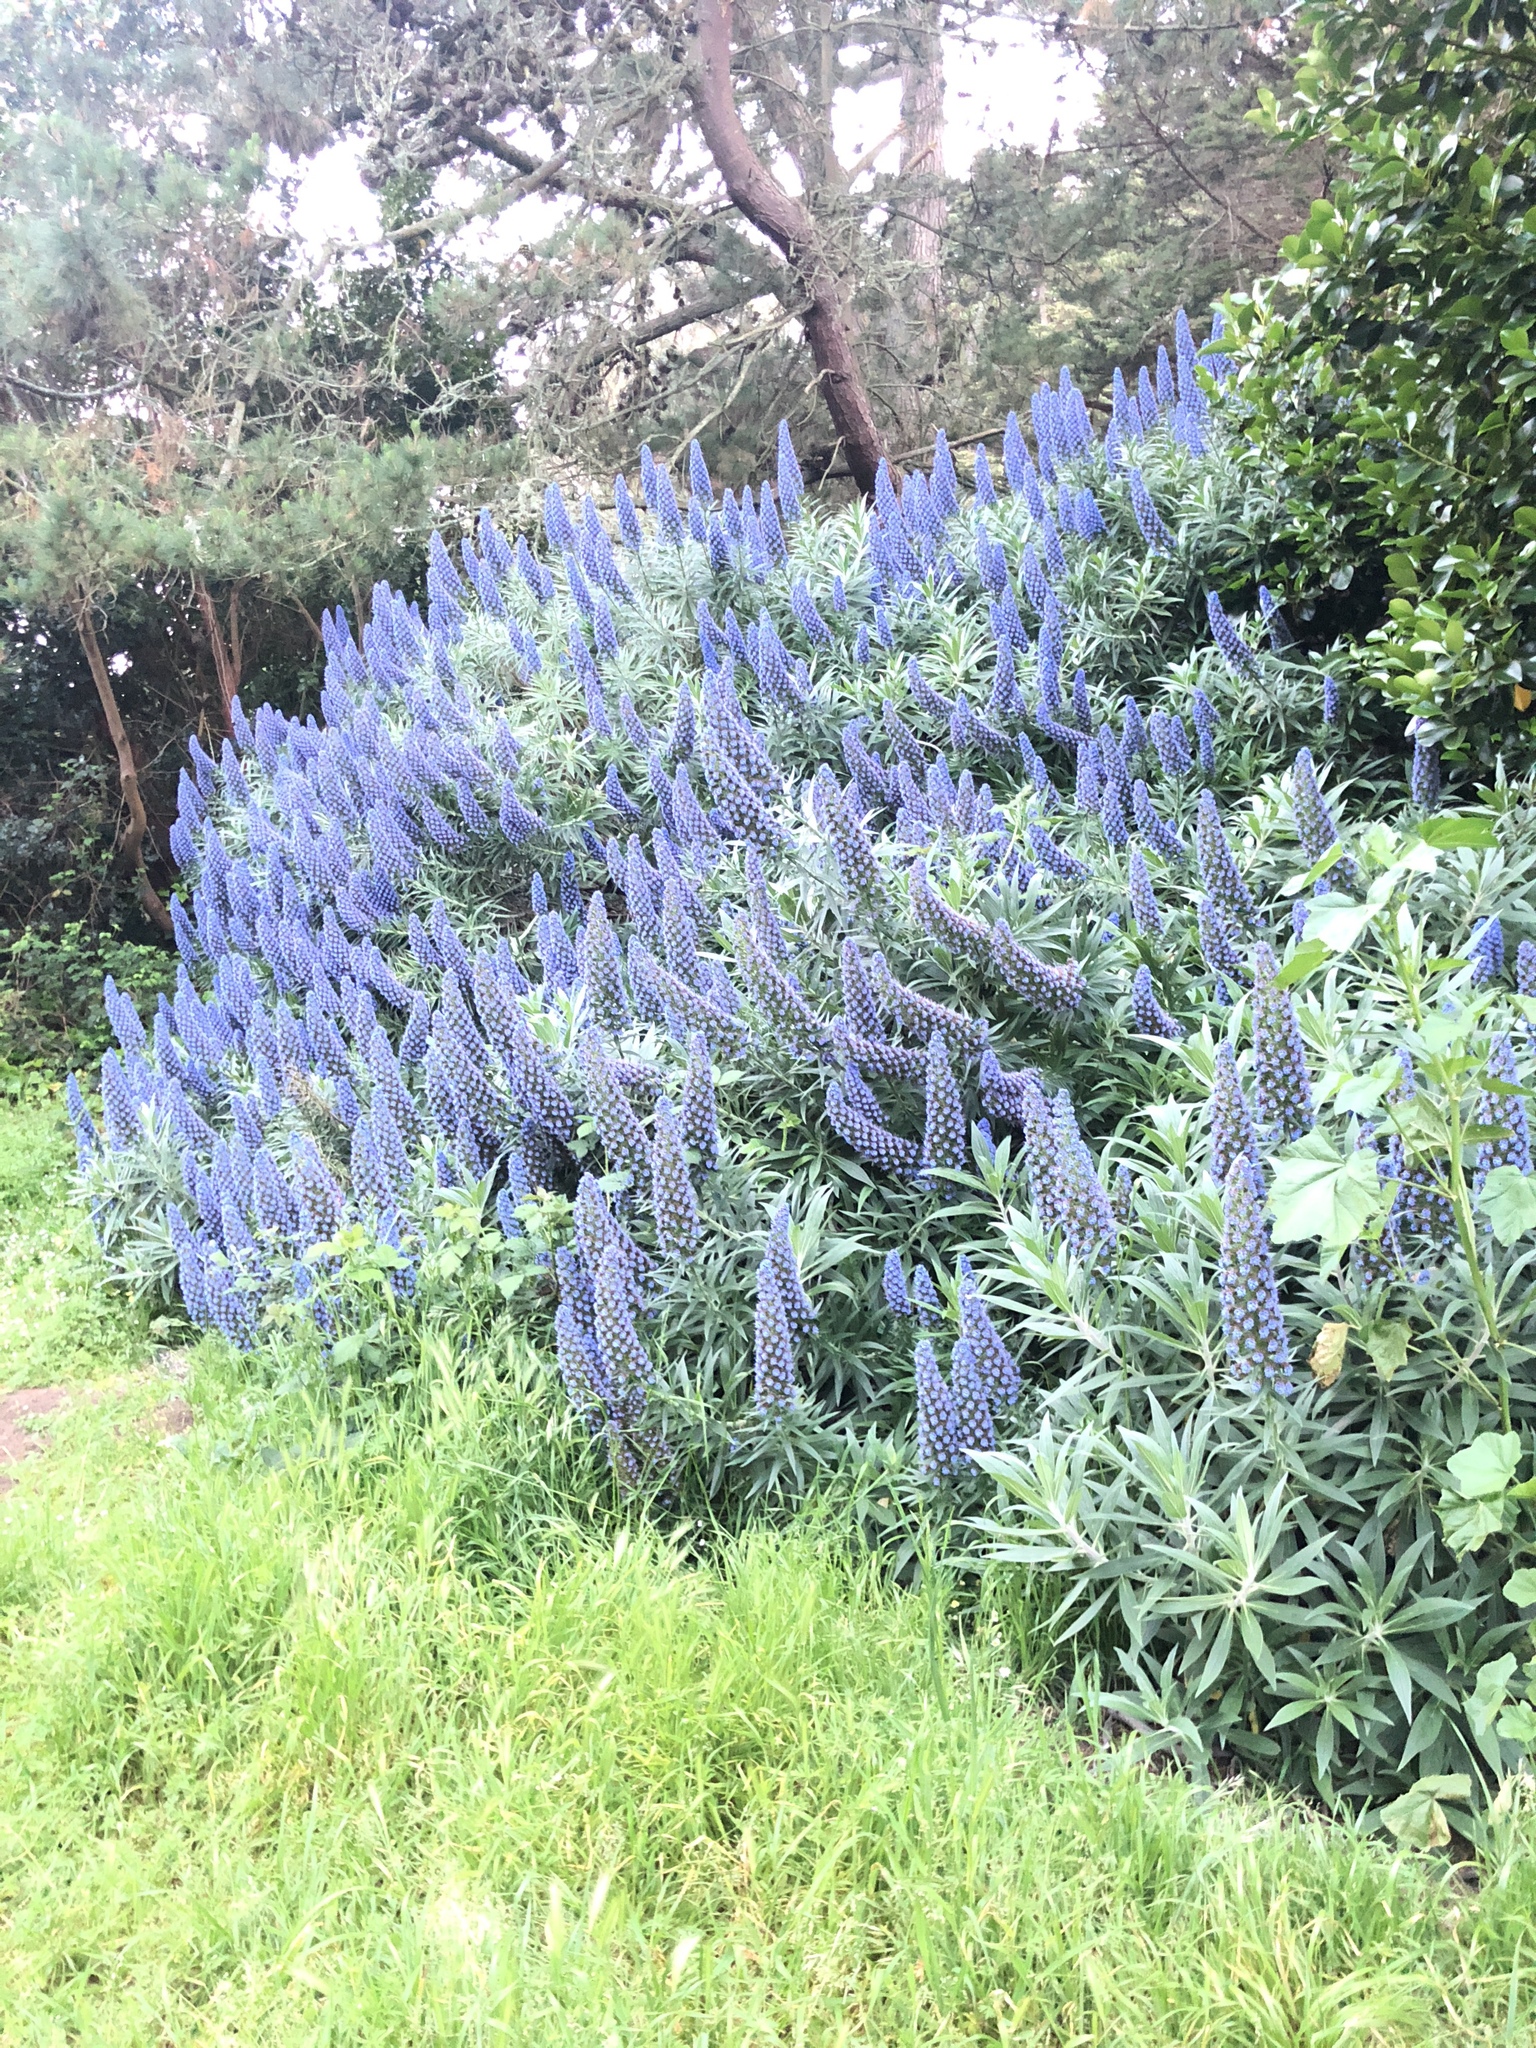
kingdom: Plantae
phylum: Tracheophyta
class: Magnoliopsida
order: Boraginales
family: Boraginaceae
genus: Echium
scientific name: Echium candicans
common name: Pride of madeira
